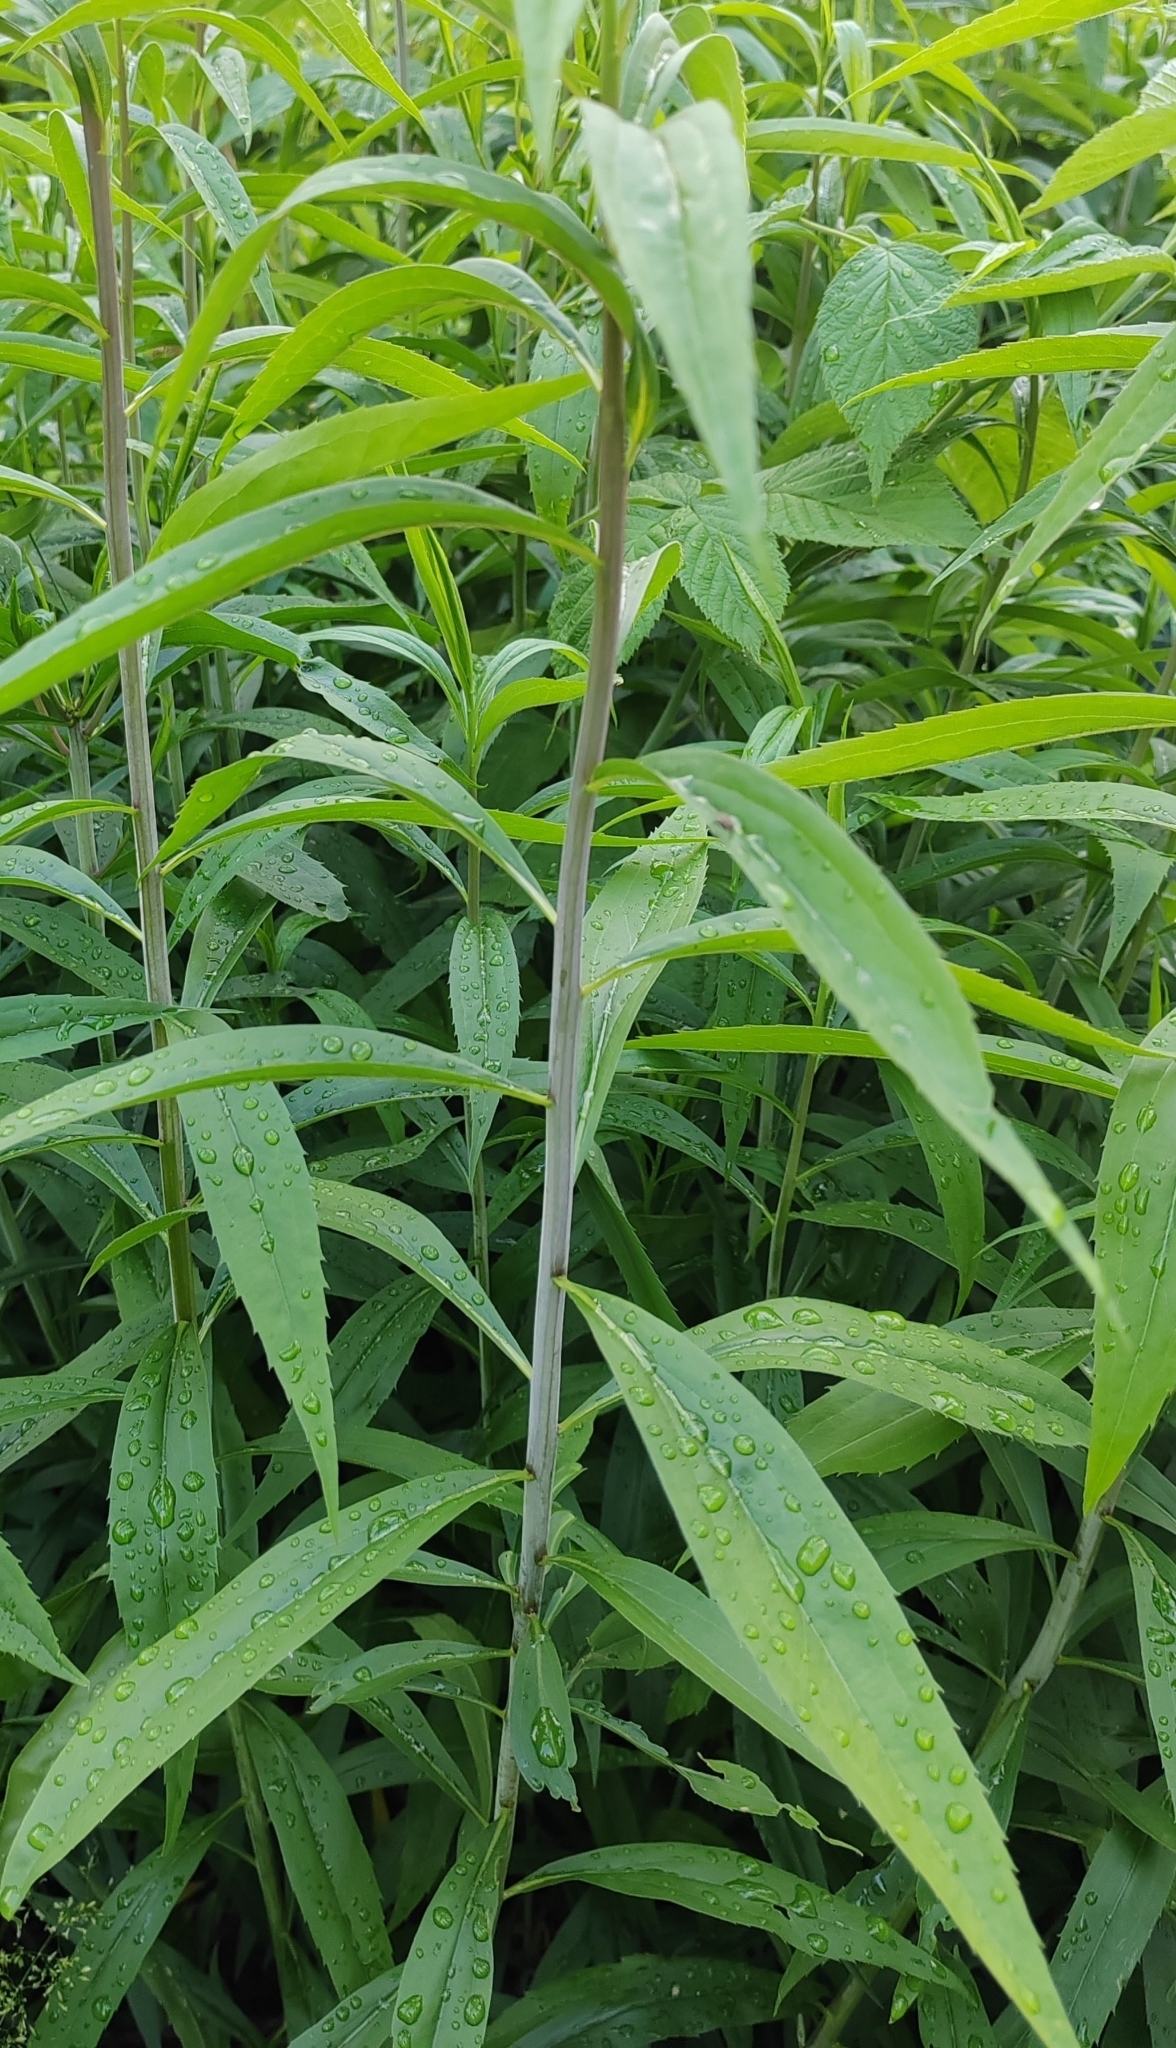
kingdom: Plantae
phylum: Tracheophyta
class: Magnoliopsida
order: Asterales
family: Asteraceae
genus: Solidago
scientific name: Solidago gigantea
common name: Giant goldenrod
